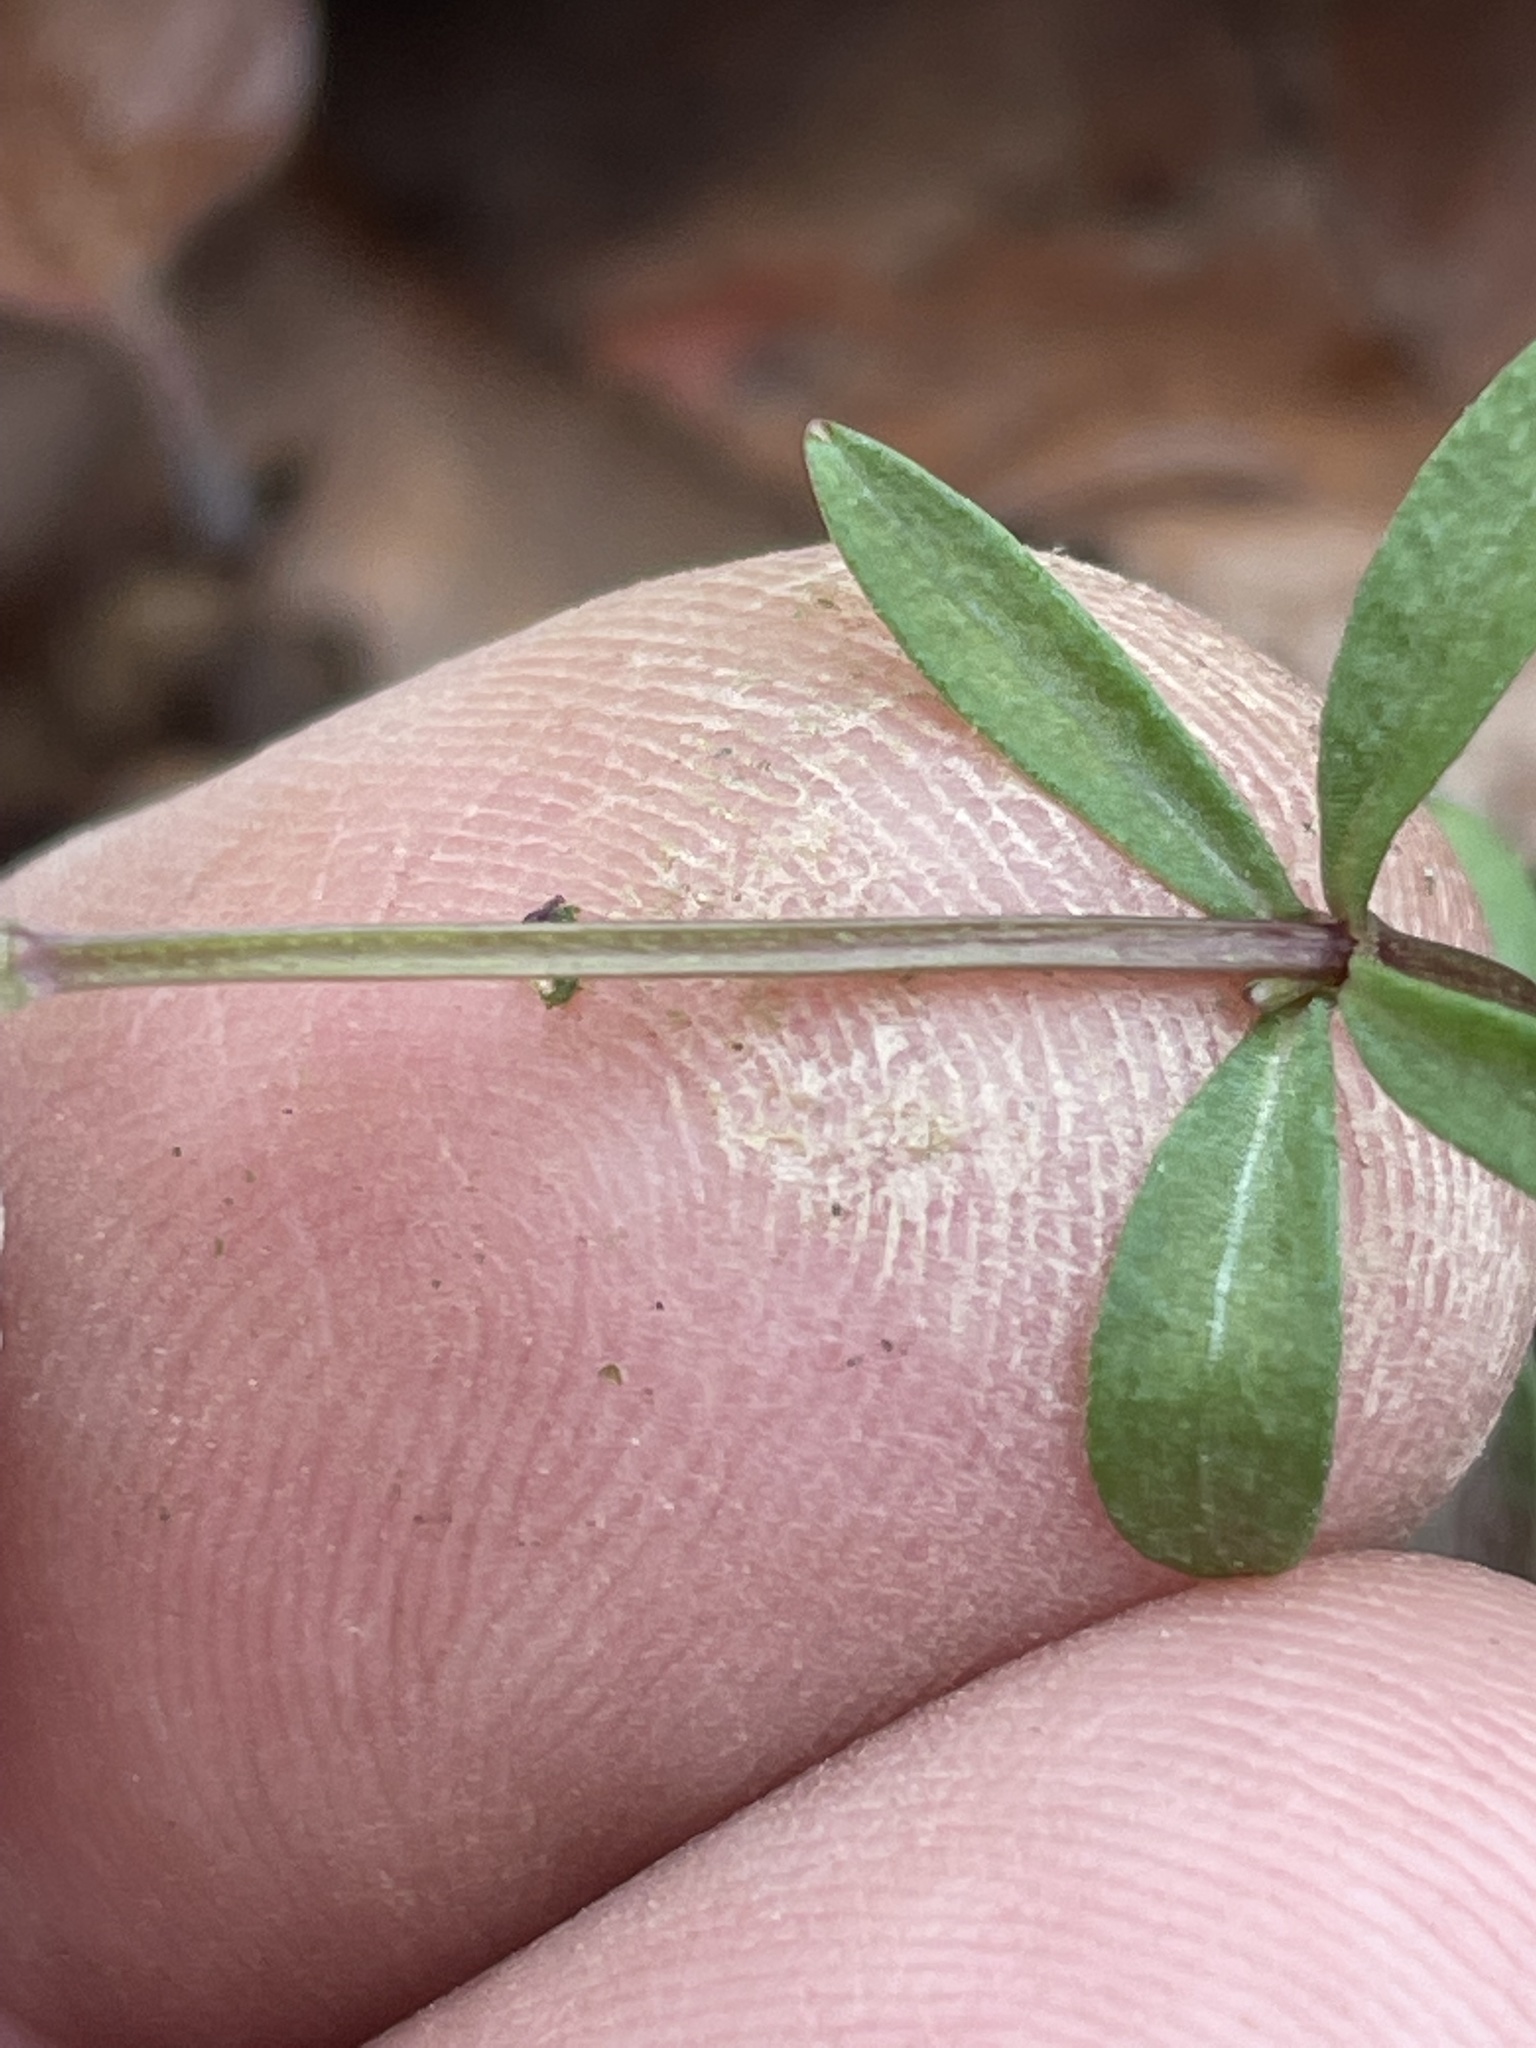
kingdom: Plantae
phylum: Tracheophyta
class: Magnoliopsida
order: Gentianales
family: Rubiaceae
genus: Galium
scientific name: Galium obtusum
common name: Blunt-leaved bedstraw
